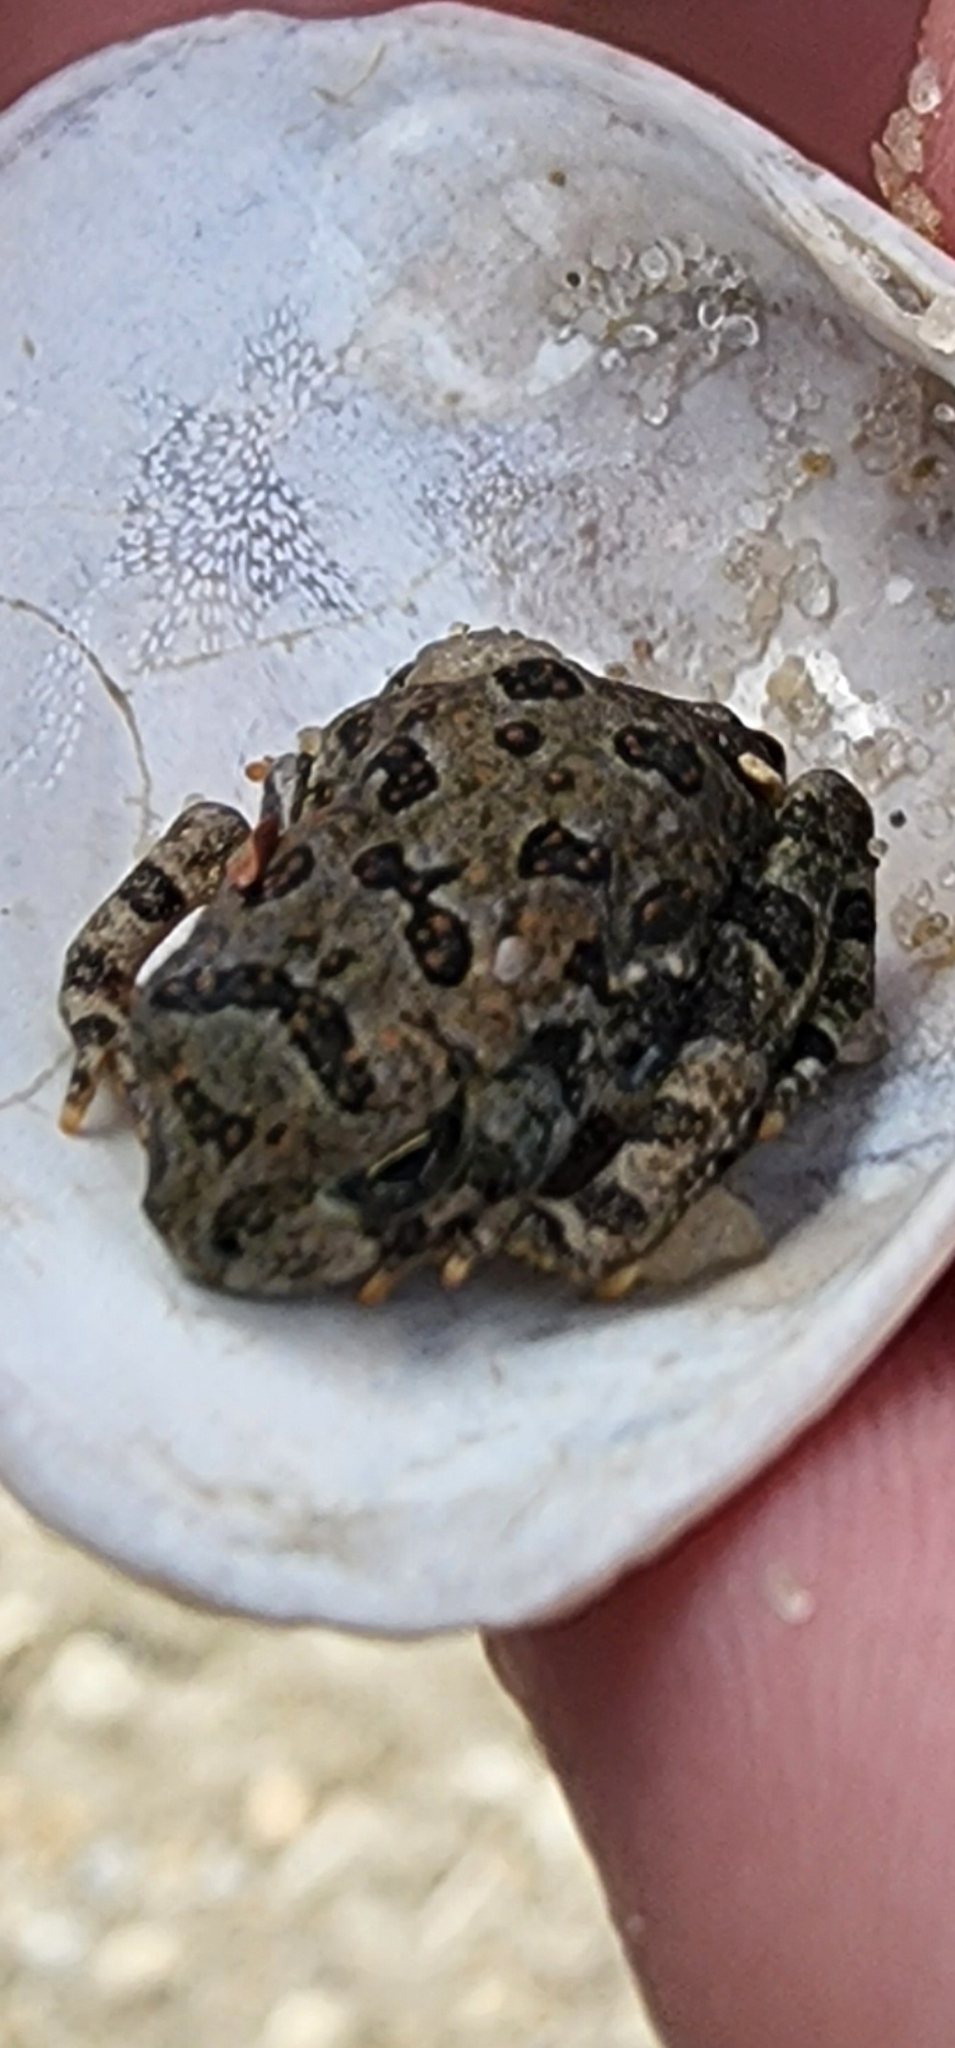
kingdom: Animalia
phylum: Chordata
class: Amphibia
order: Anura
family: Bufonidae
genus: Anaxyrus
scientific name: Anaxyrus fowleri
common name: Fowler's toad
